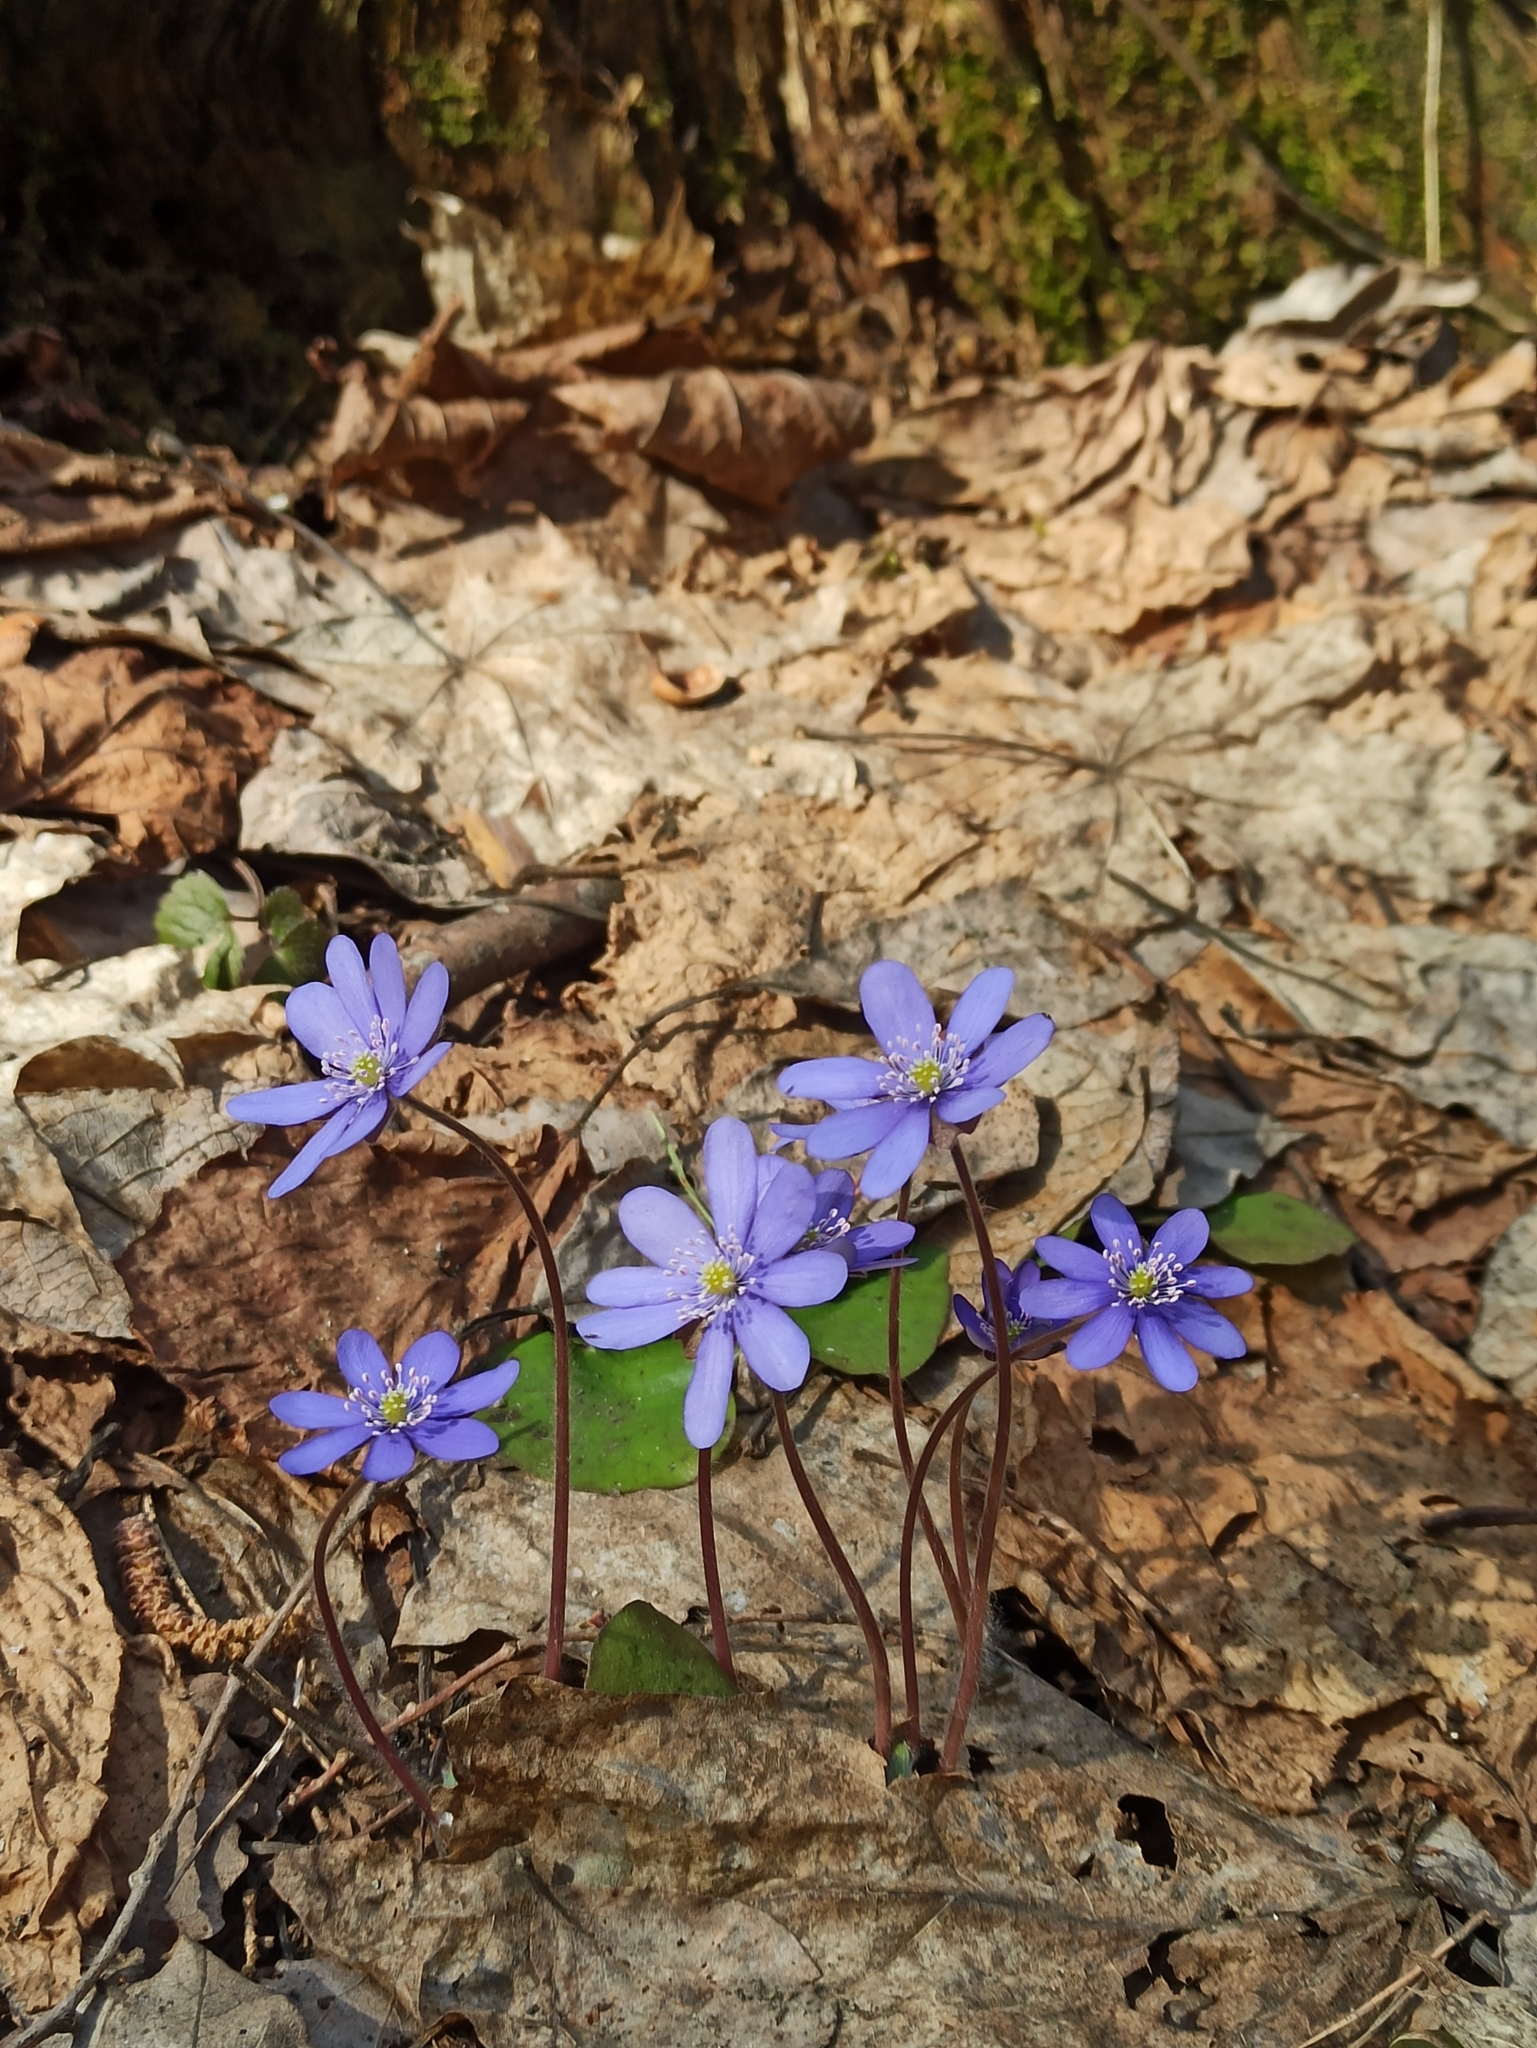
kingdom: Plantae
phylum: Tracheophyta
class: Magnoliopsida
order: Ranunculales
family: Ranunculaceae
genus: Hepatica
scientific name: Hepatica nobilis
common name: Liverleaf
